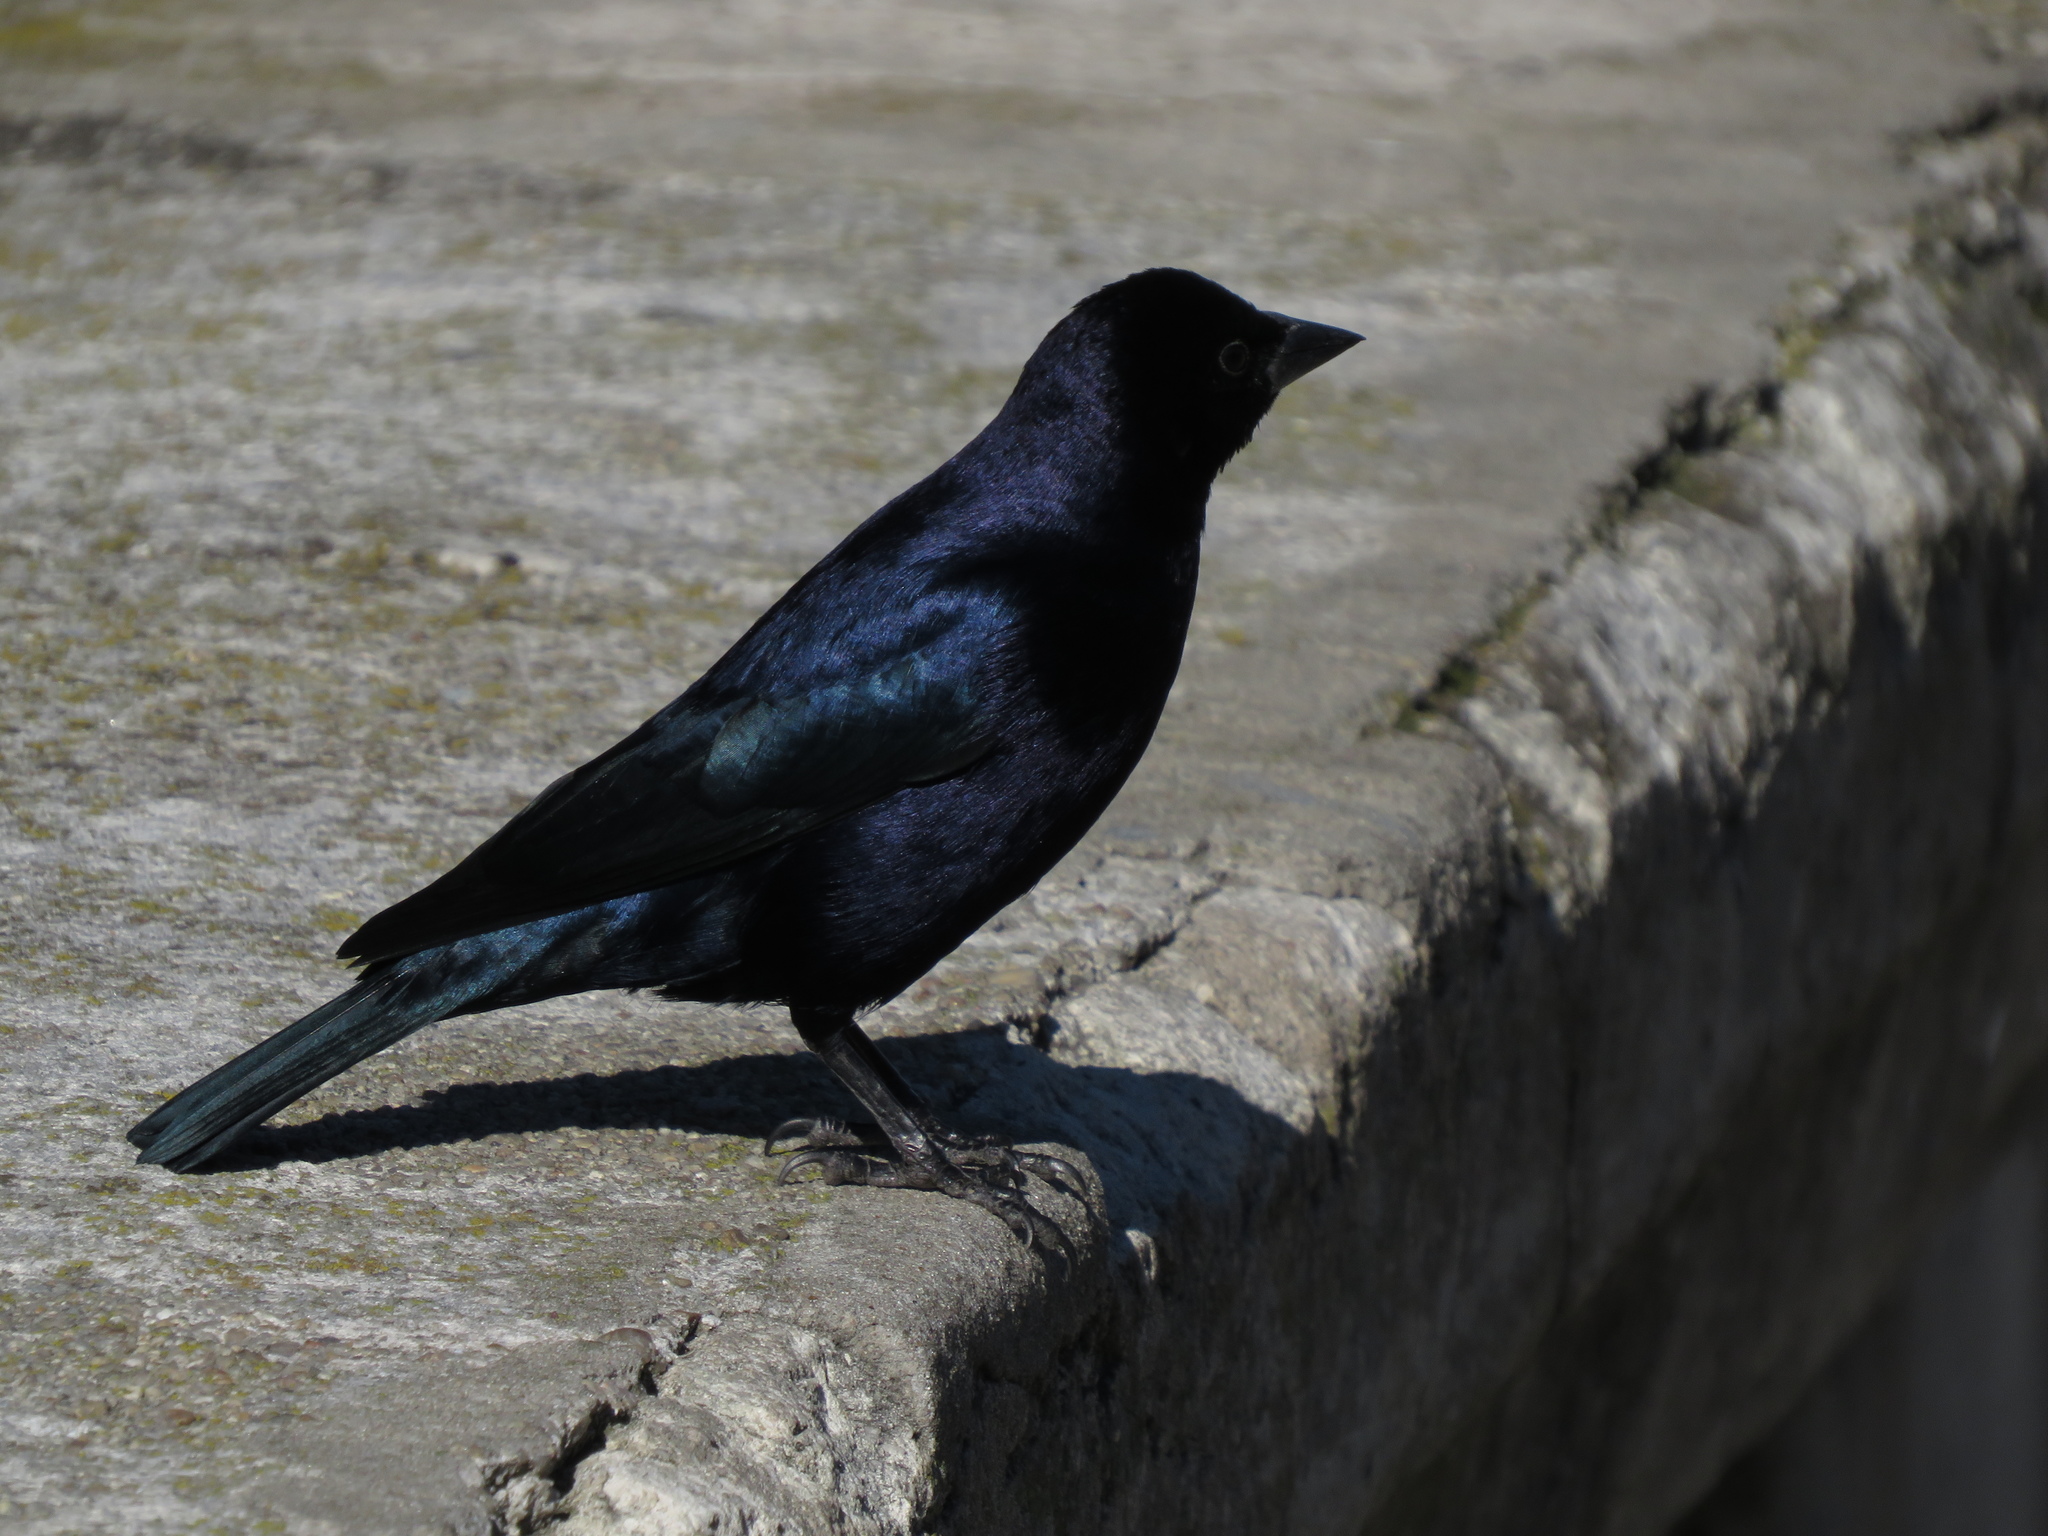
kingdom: Animalia
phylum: Chordata
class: Aves
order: Passeriformes
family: Icteridae
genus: Molothrus
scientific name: Molothrus bonariensis
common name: Shiny cowbird
